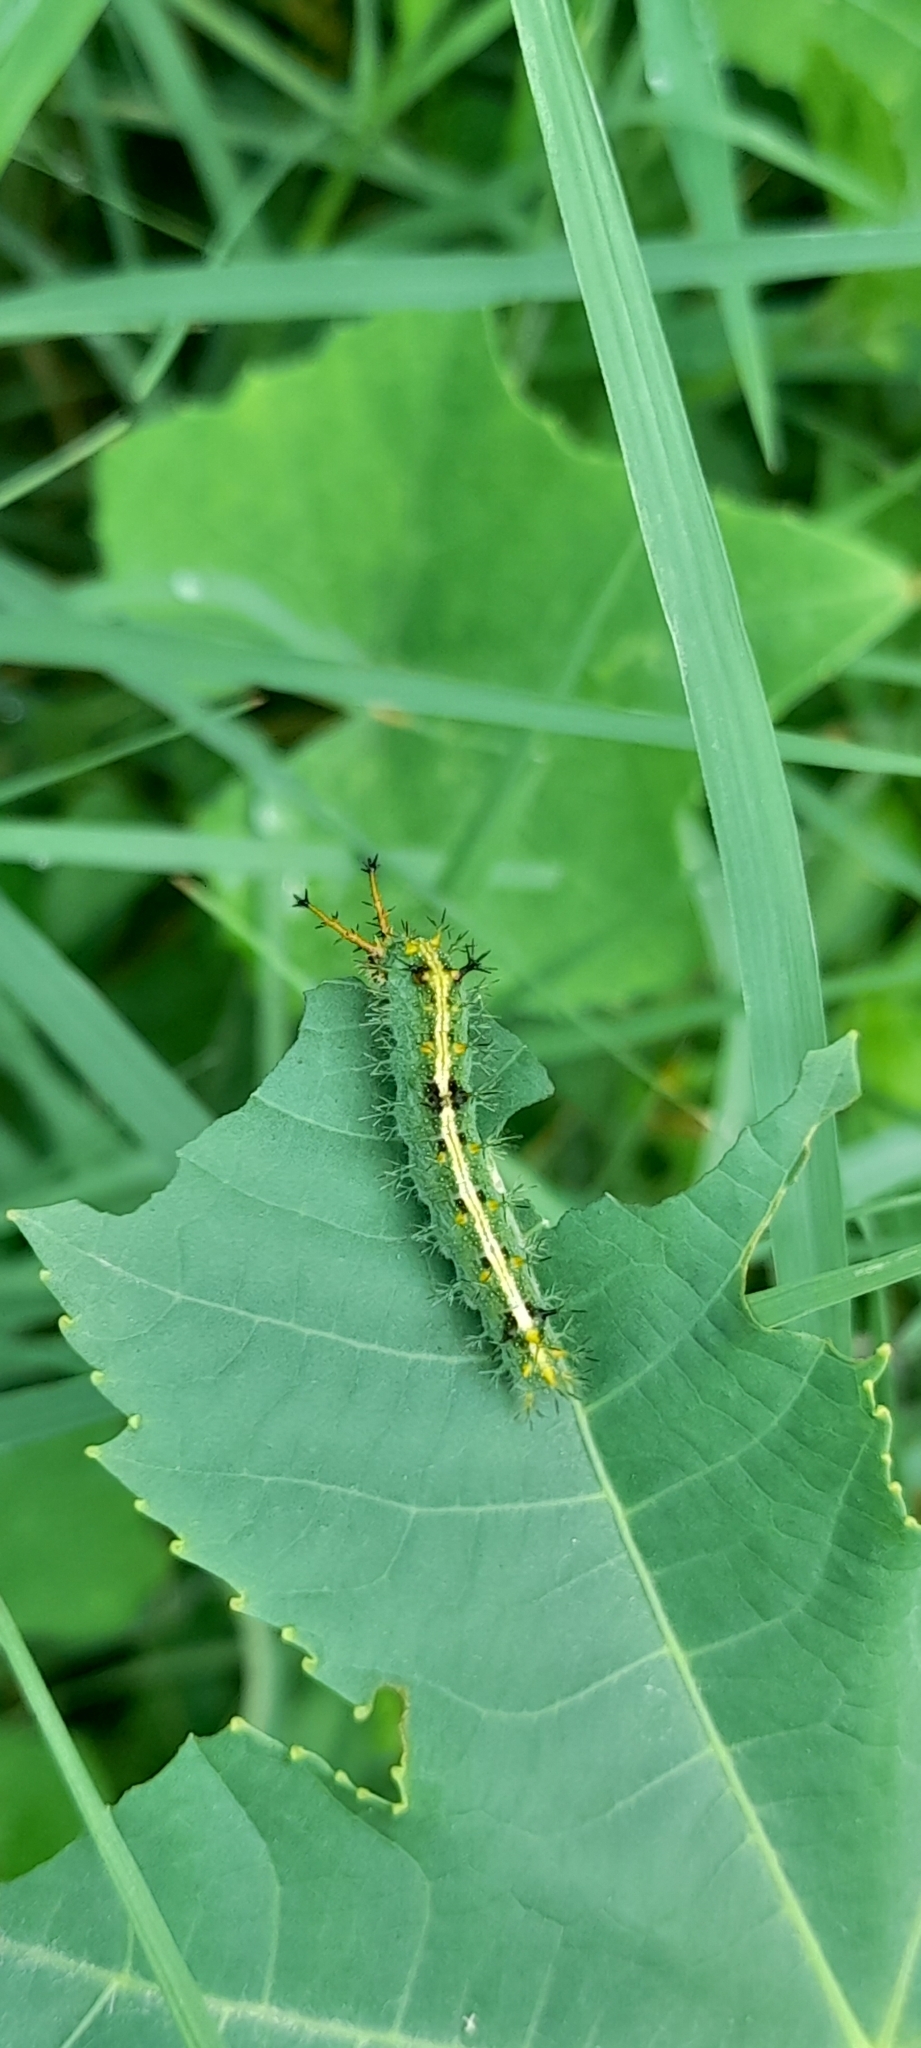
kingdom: Animalia
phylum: Arthropoda
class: Insecta
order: Lepidoptera
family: Nymphalidae
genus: Ariadne
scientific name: Ariadne merione
